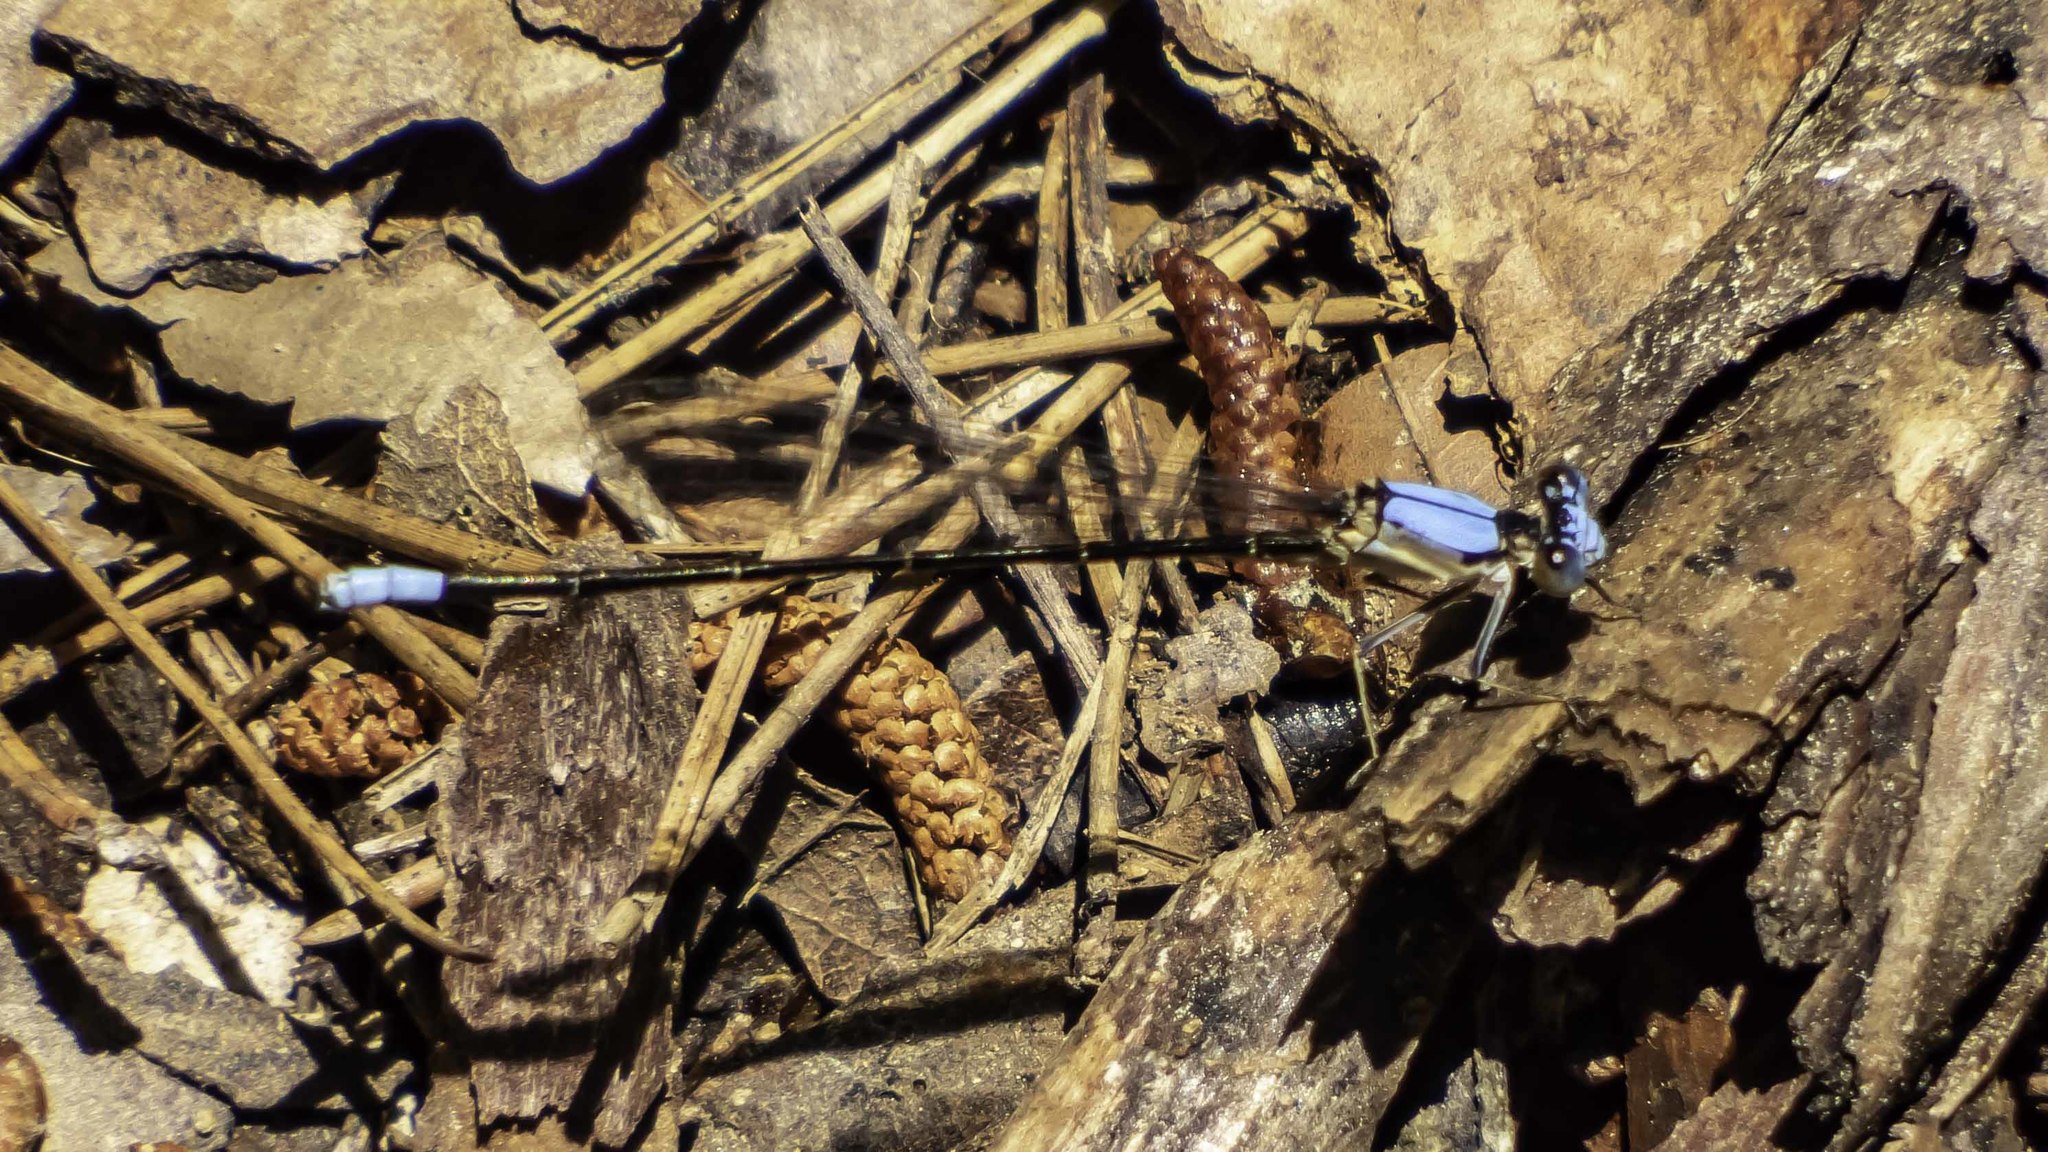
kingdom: Animalia
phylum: Arthropoda
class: Insecta
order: Odonata
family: Coenagrionidae
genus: Argia
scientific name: Argia apicalis
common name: Blue-fronted dancer
